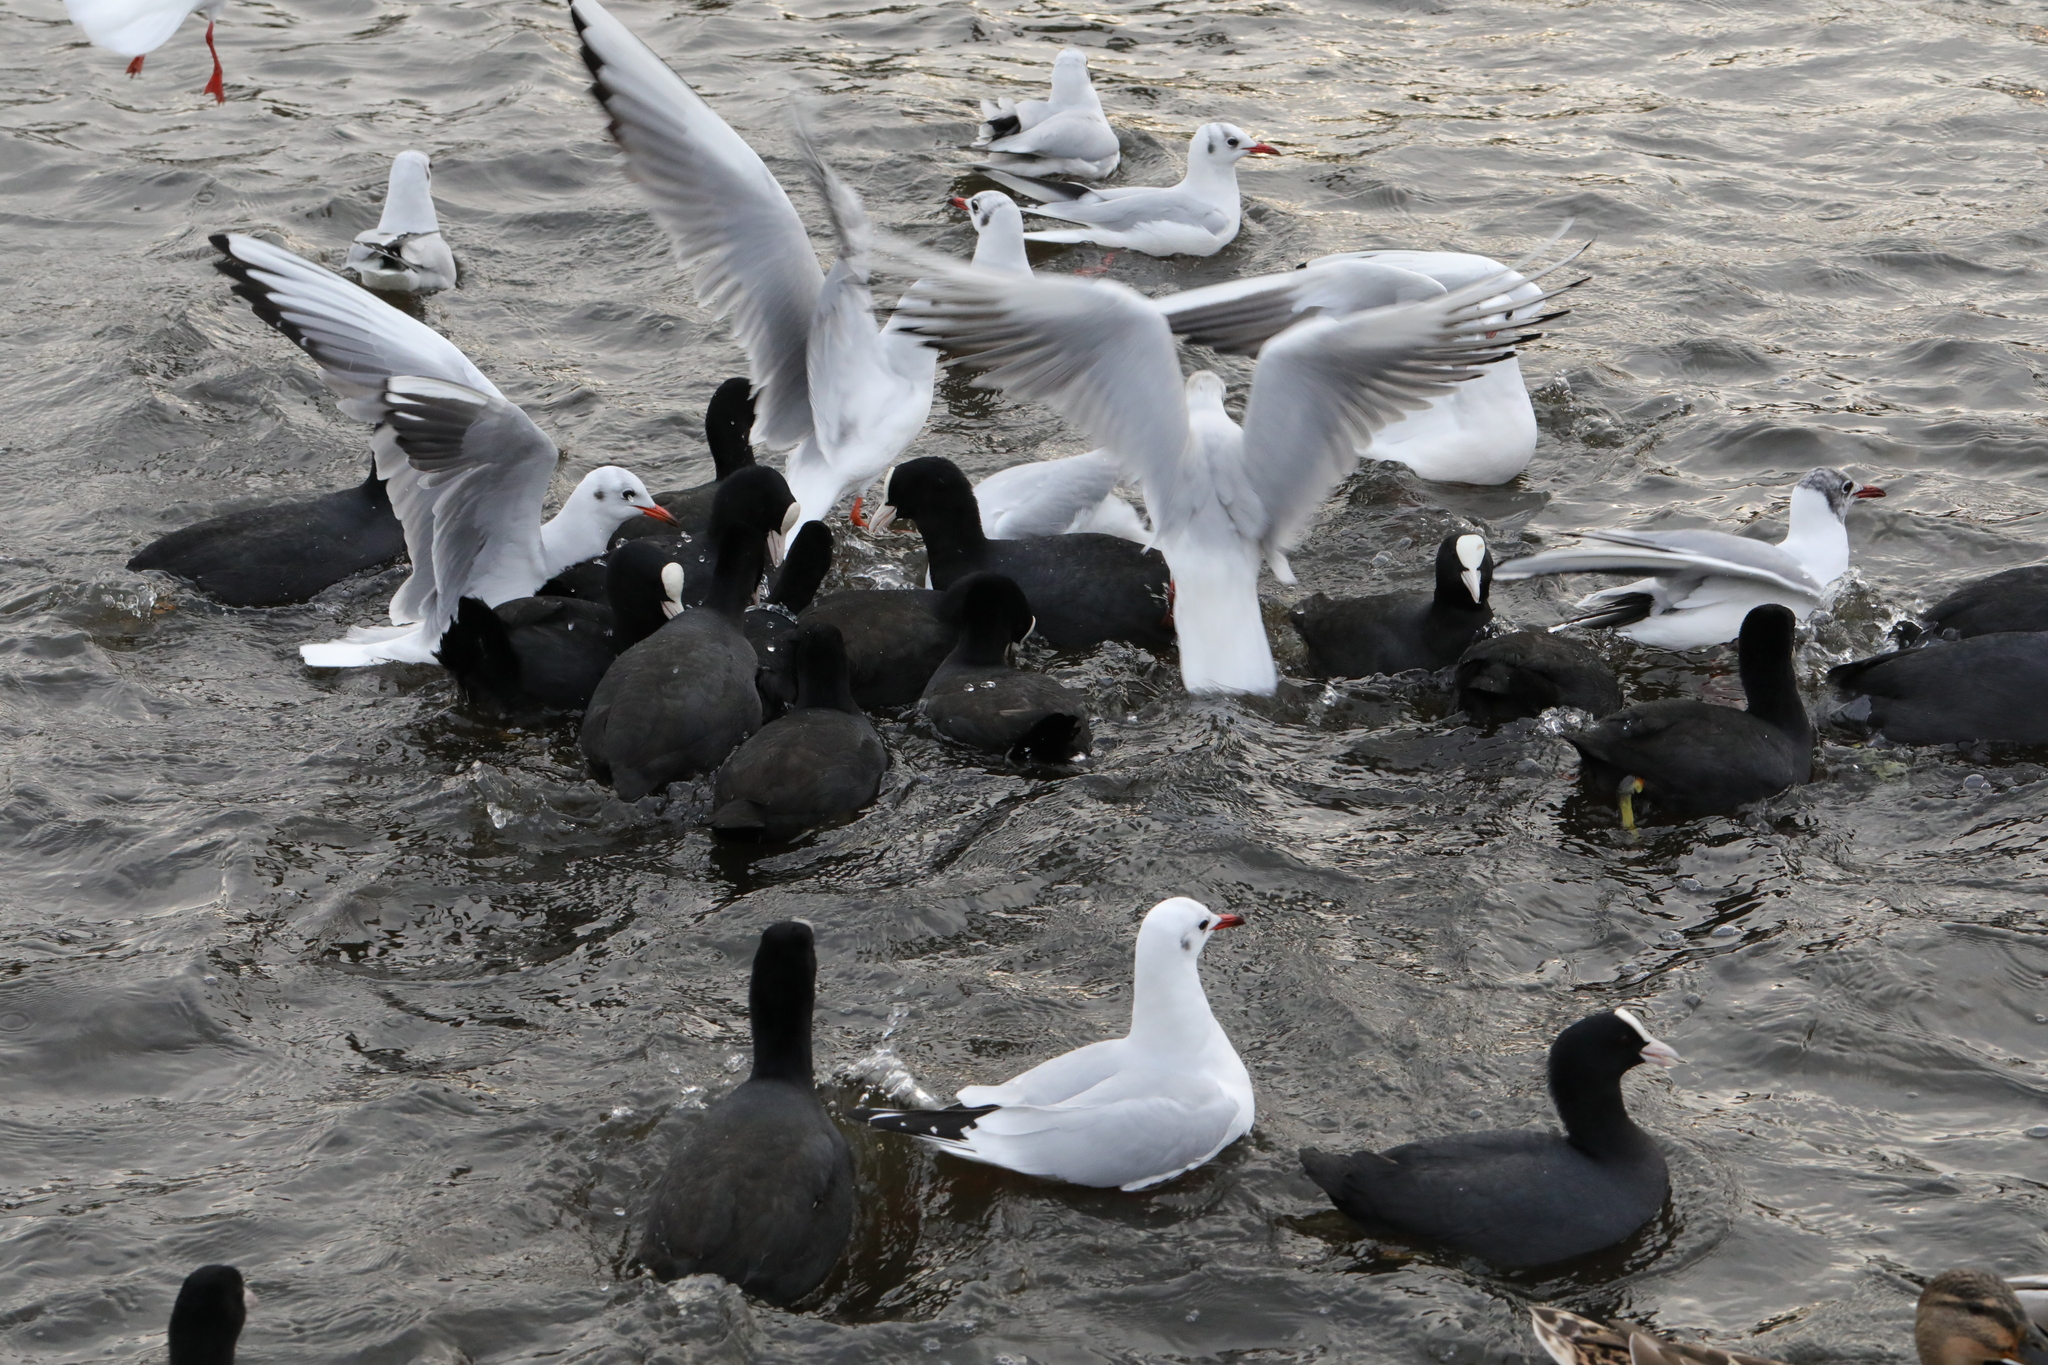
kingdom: Animalia
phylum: Chordata
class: Aves
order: Gruiformes
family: Rallidae
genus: Fulica
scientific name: Fulica atra
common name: Eurasian coot
